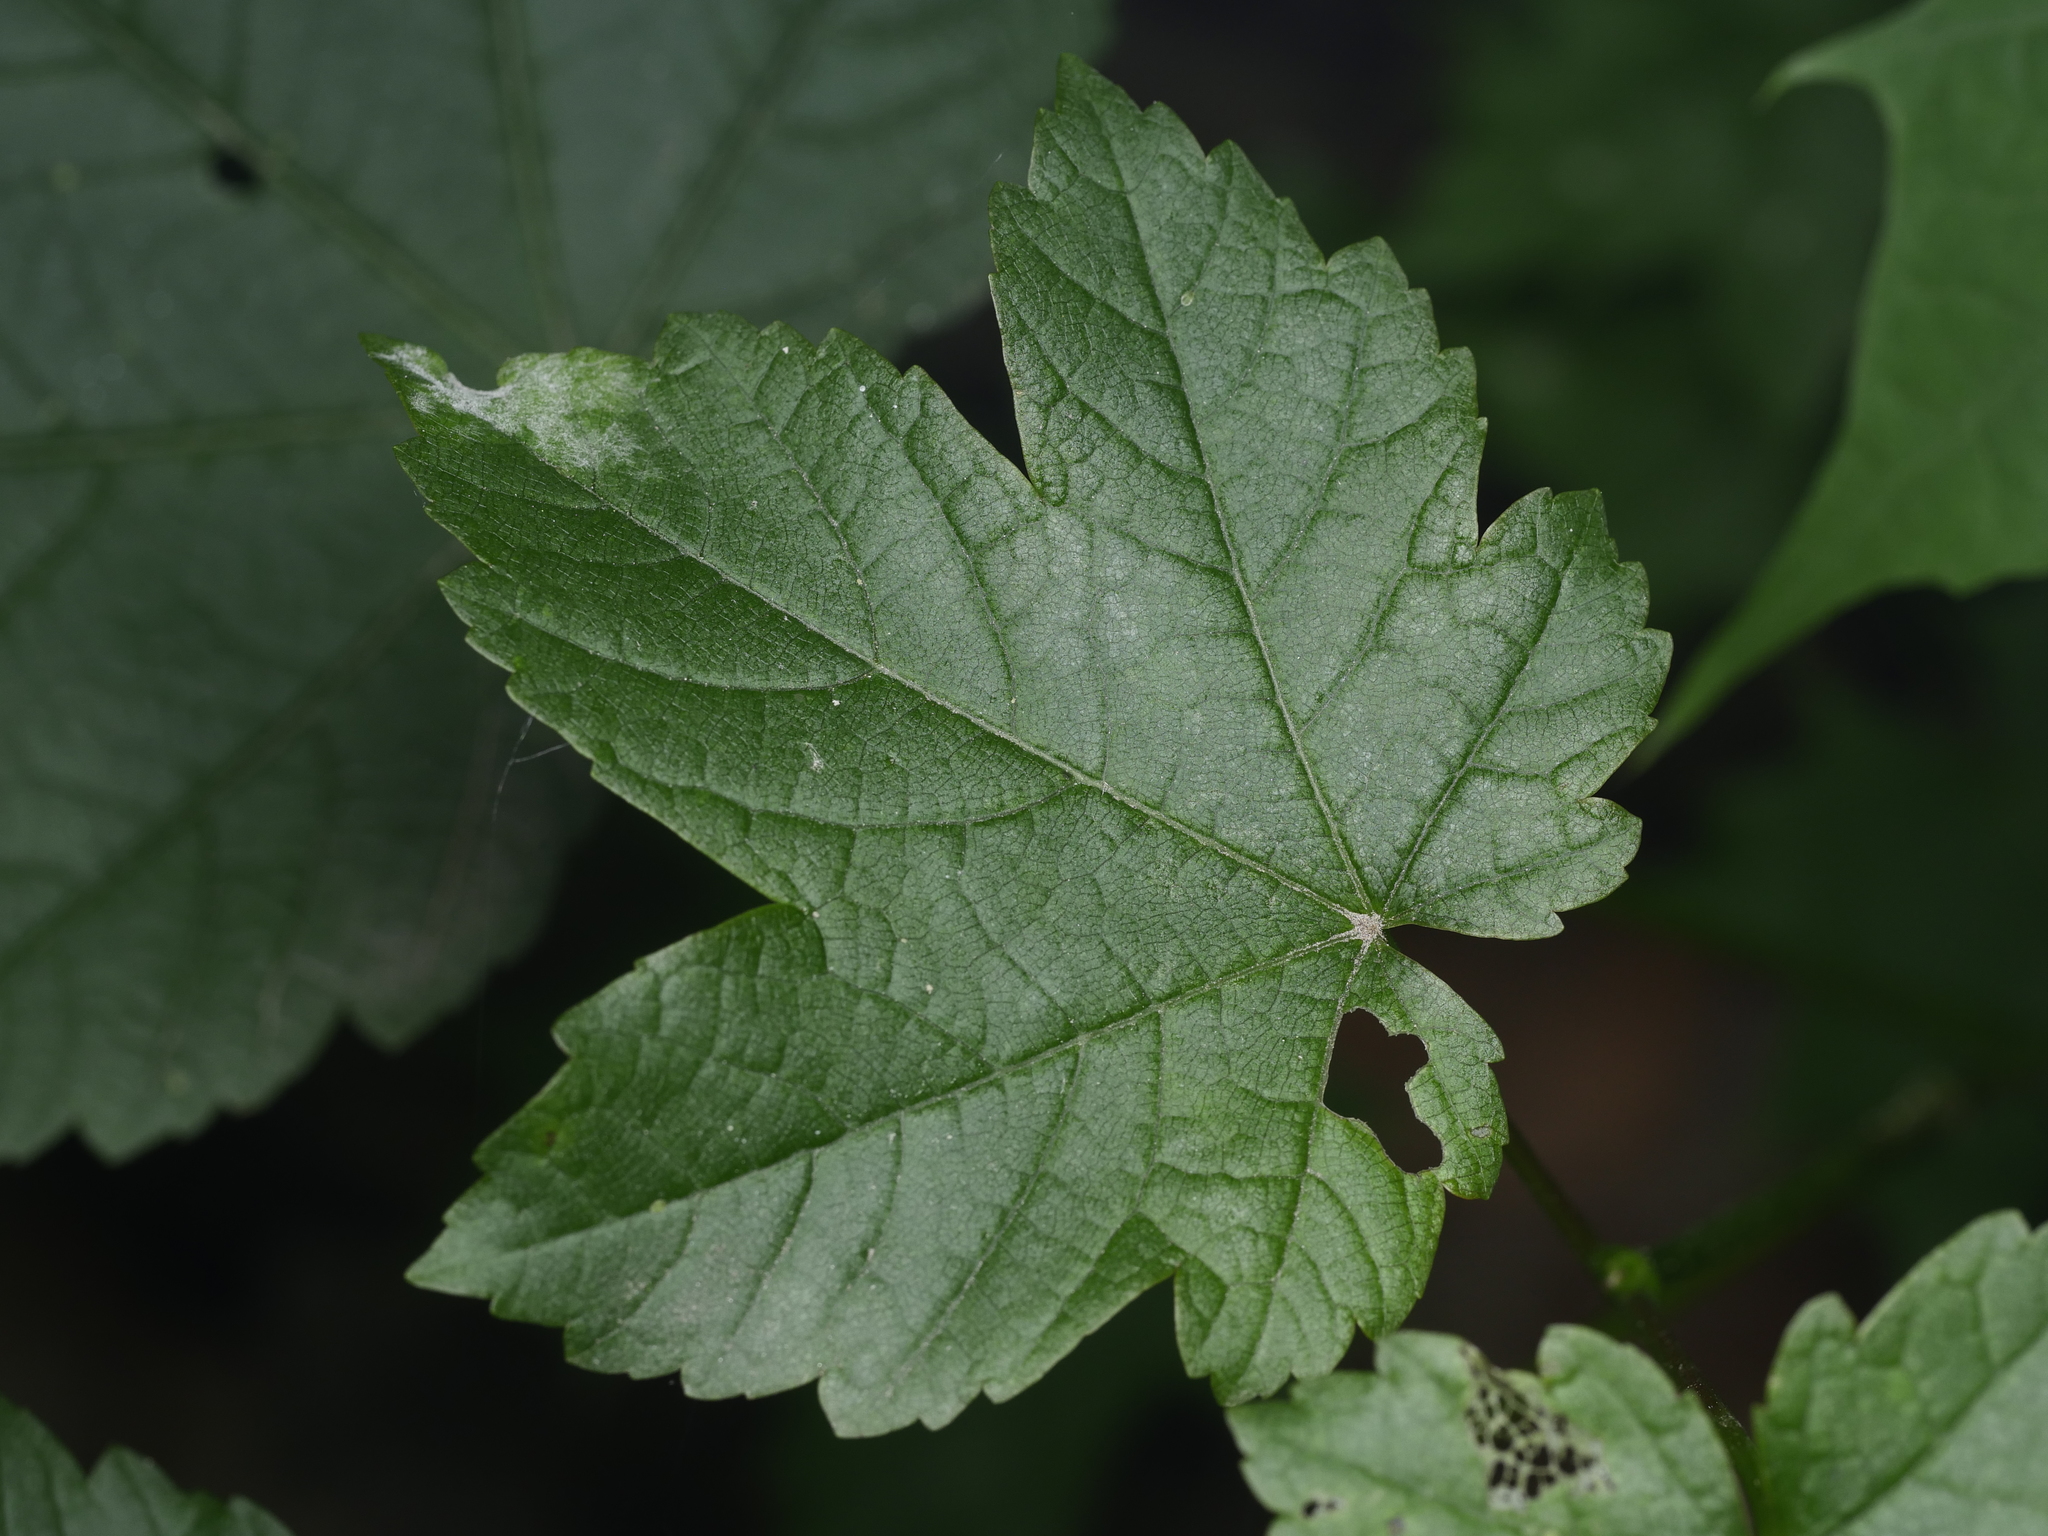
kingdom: Plantae
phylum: Tracheophyta
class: Magnoliopsida
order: Sapindales
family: Sapindaceae
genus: Acer
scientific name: Acer pseudoplatanus
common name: Sycamore
